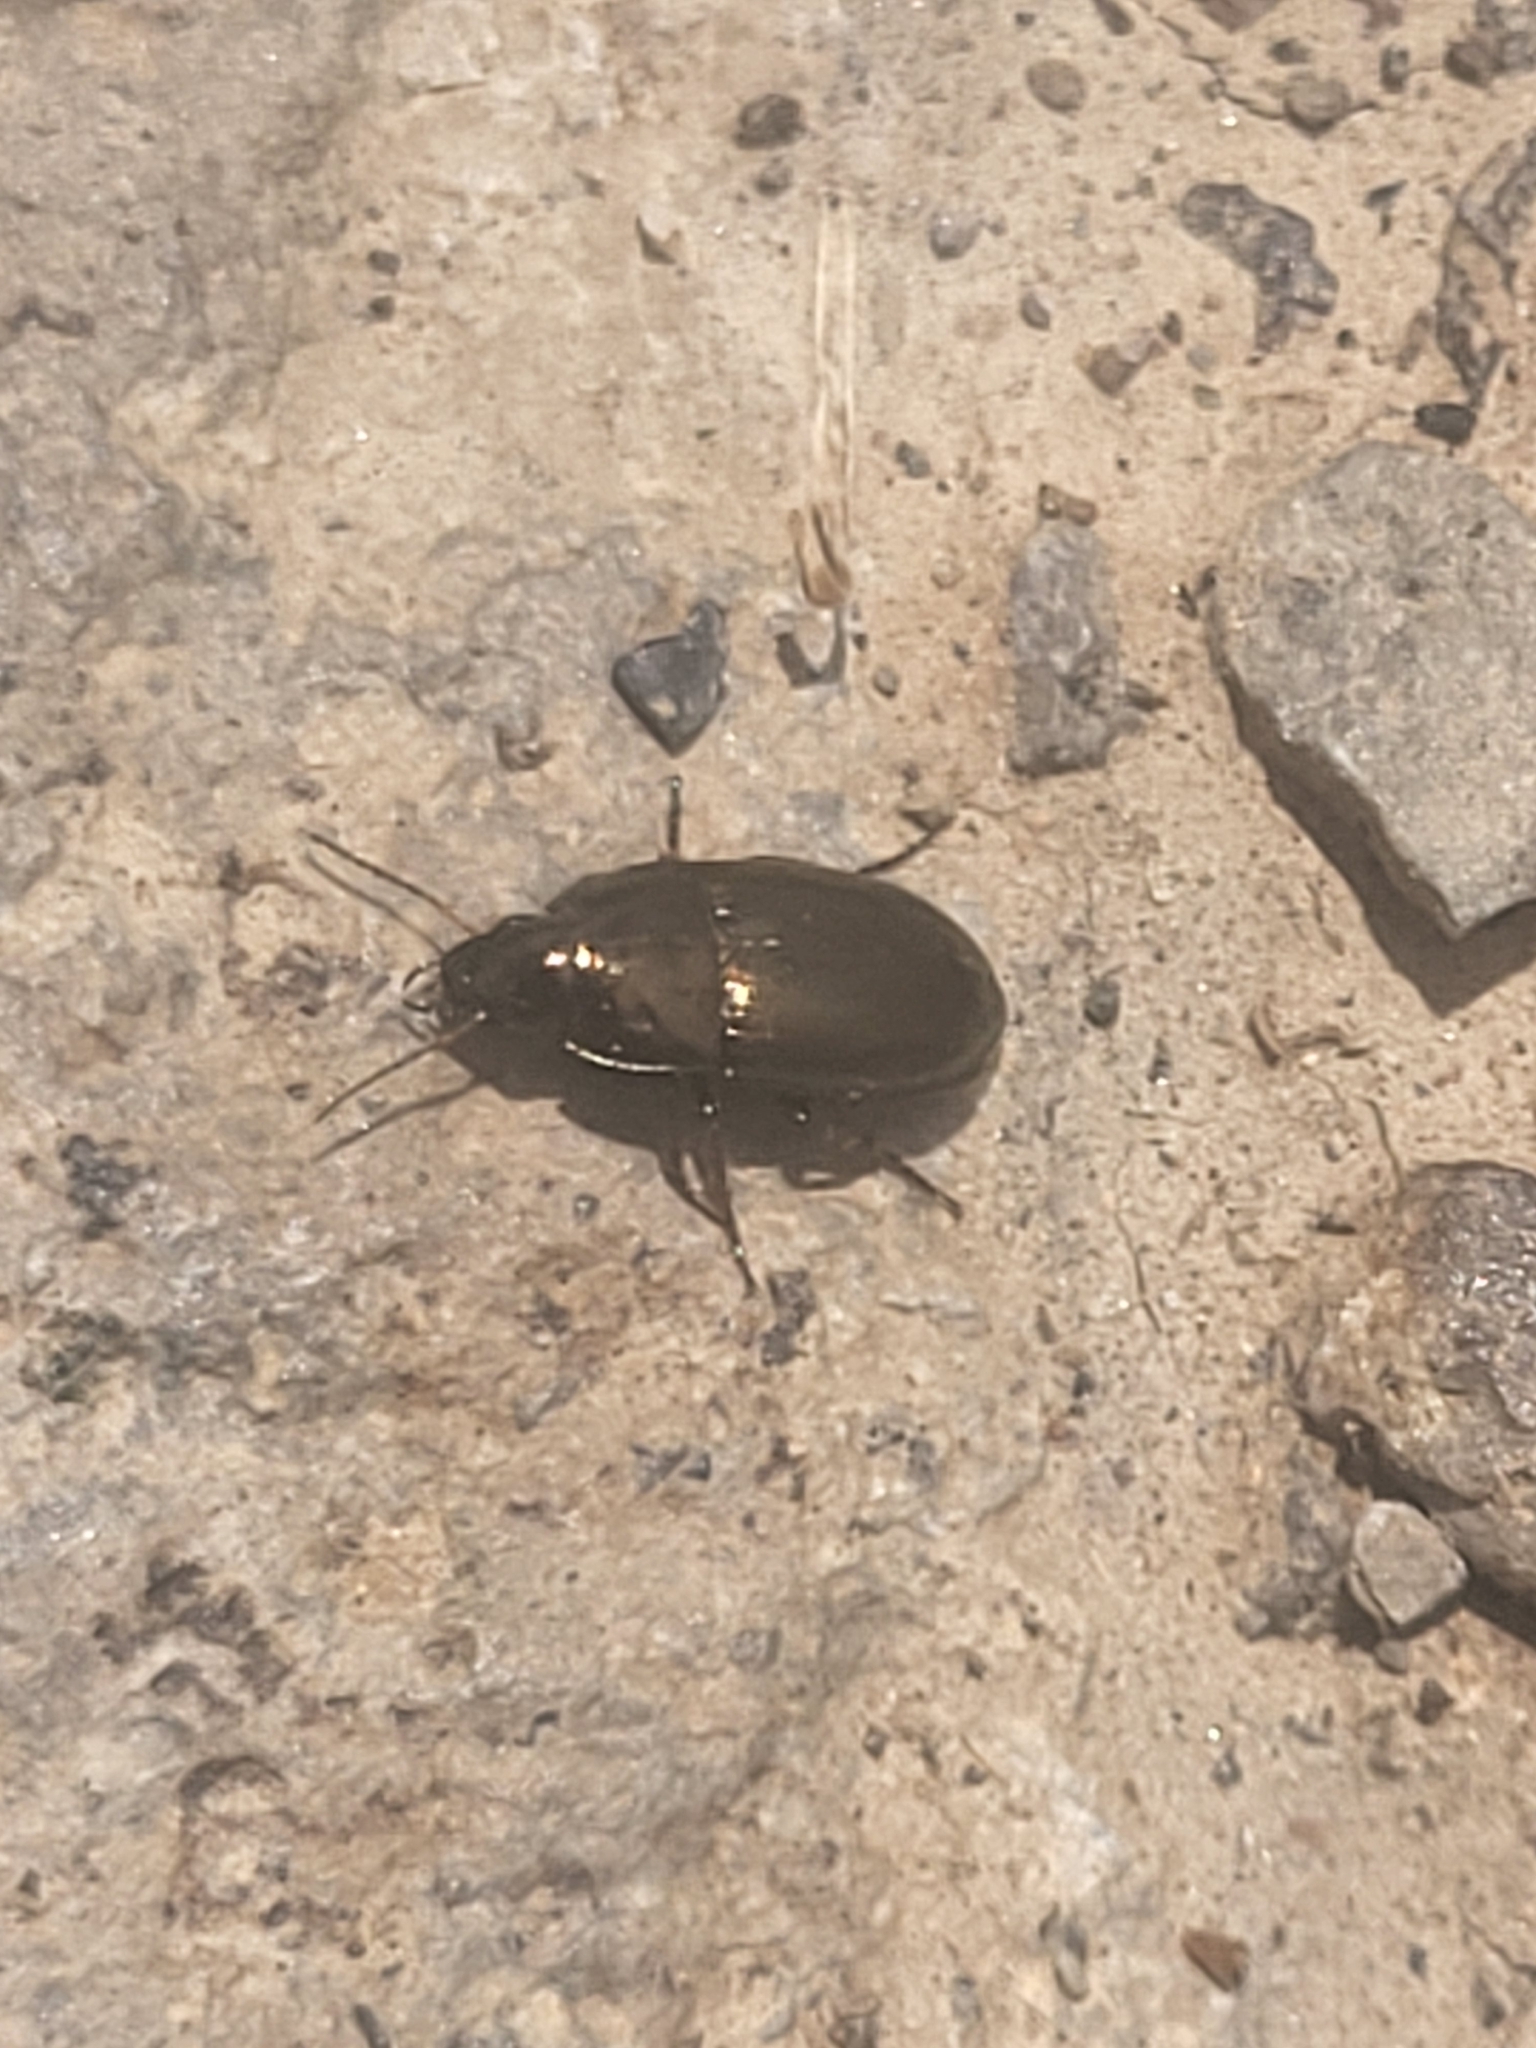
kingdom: Animalia
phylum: Arthropoda
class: Insecta
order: Coleoptera
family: Carabidae
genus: Amara
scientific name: Amara
